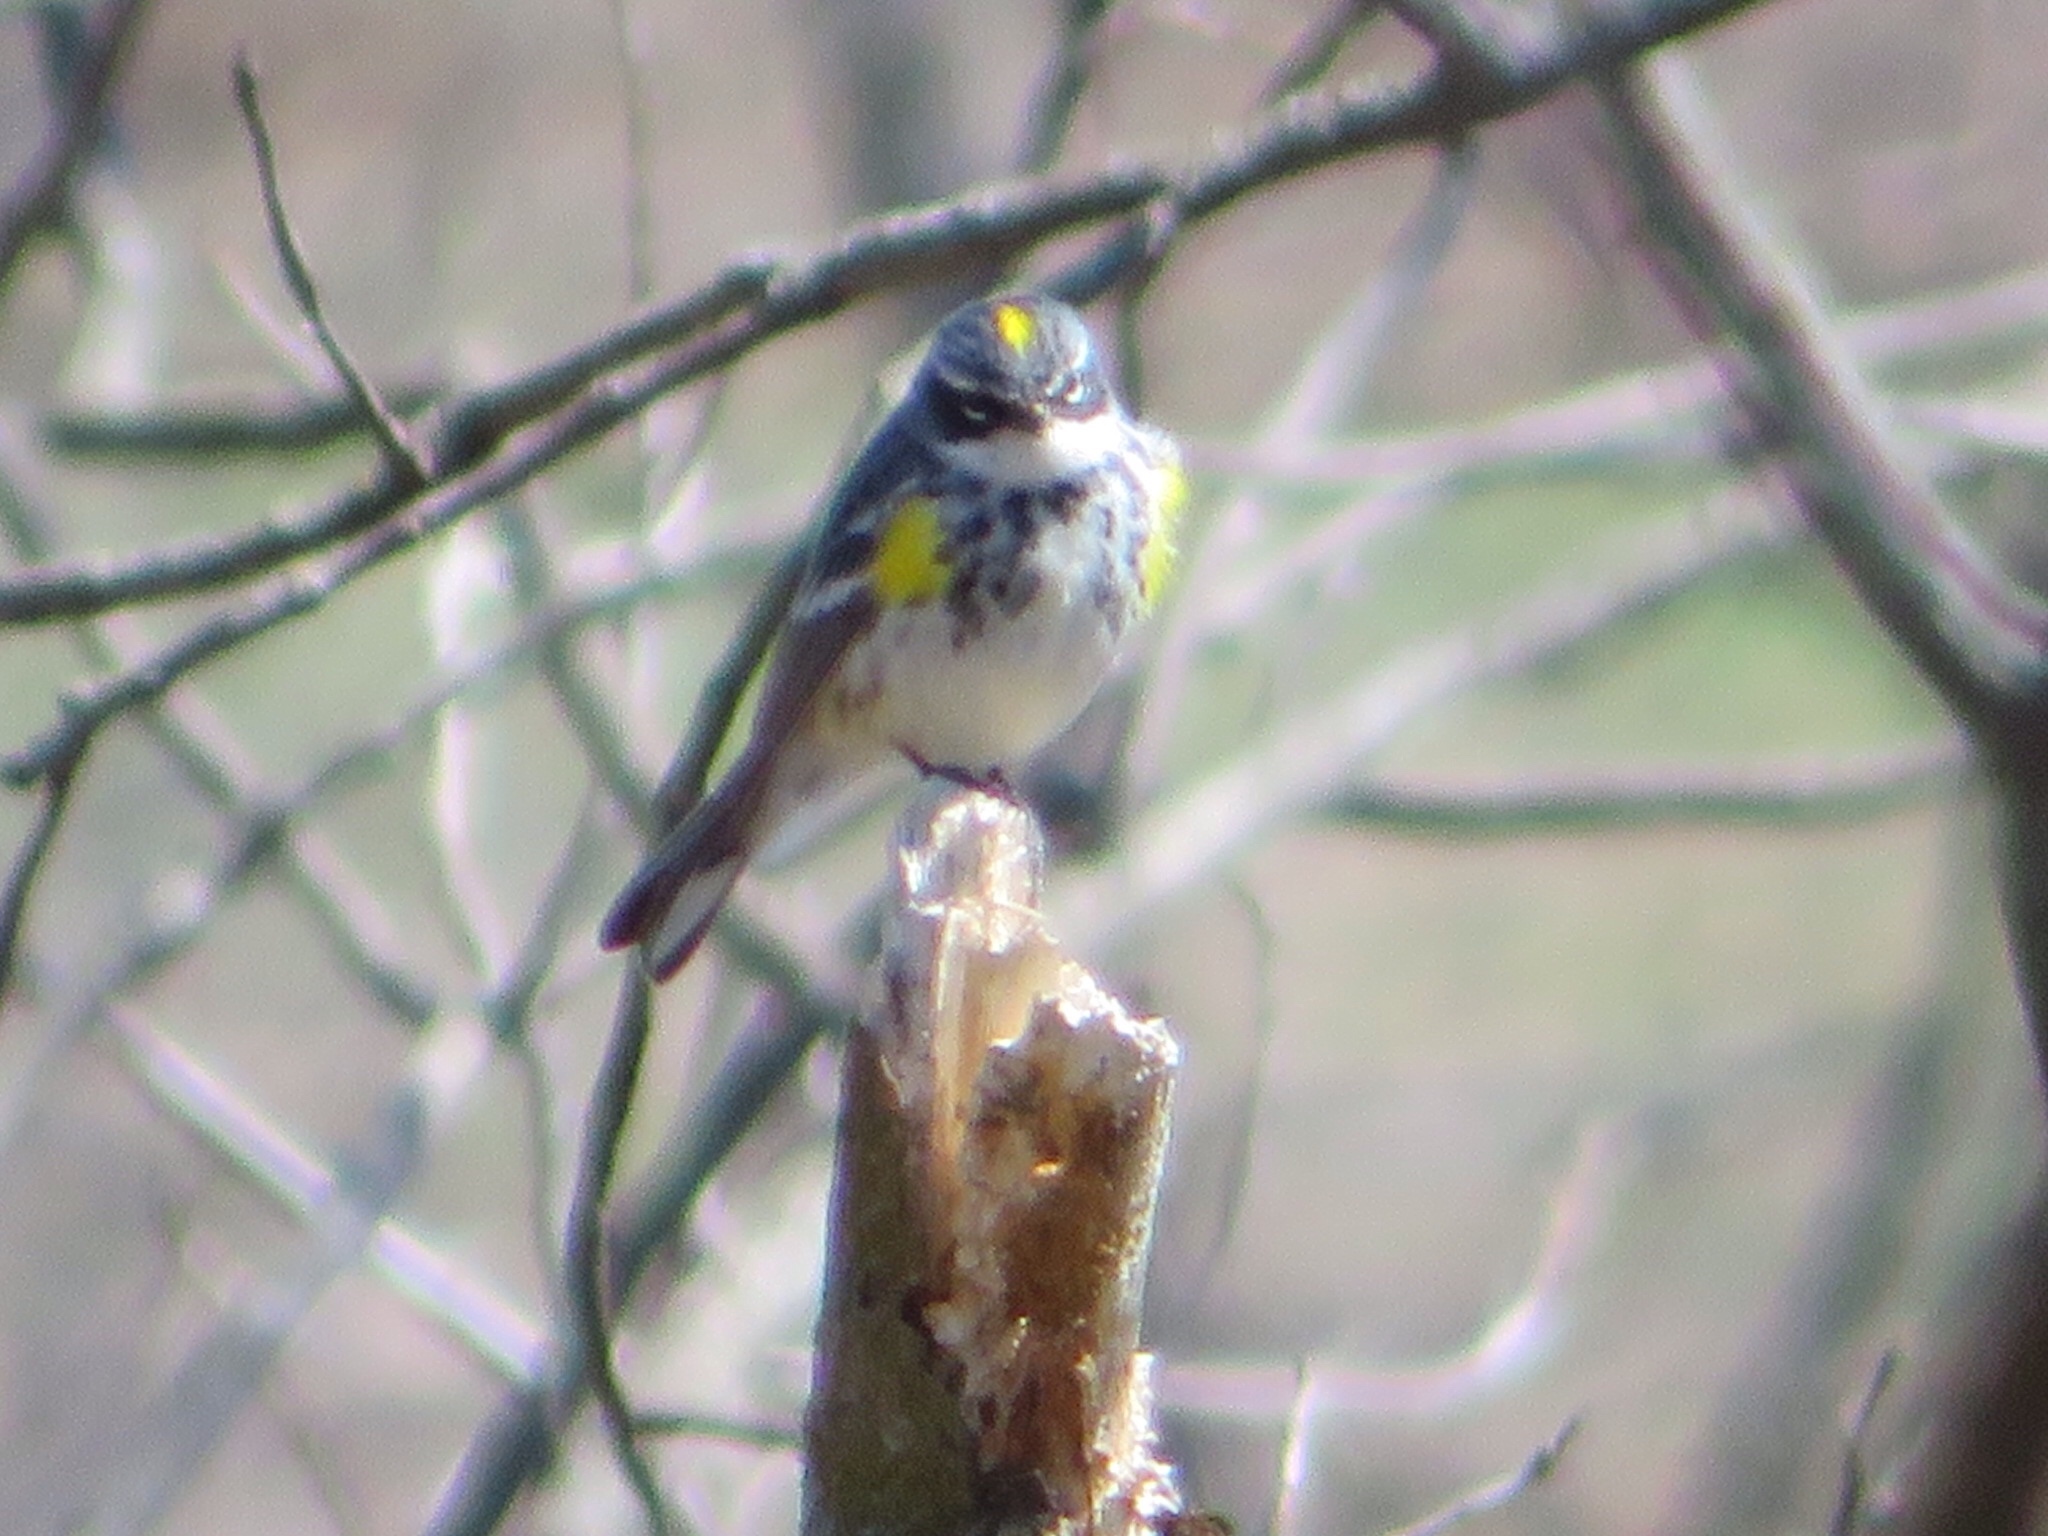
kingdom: Animalia
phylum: Chordata
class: Aves
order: Passeriformes
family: Parulidae
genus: Setophaga
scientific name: Setophaga coronata
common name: Myrtle warbler
